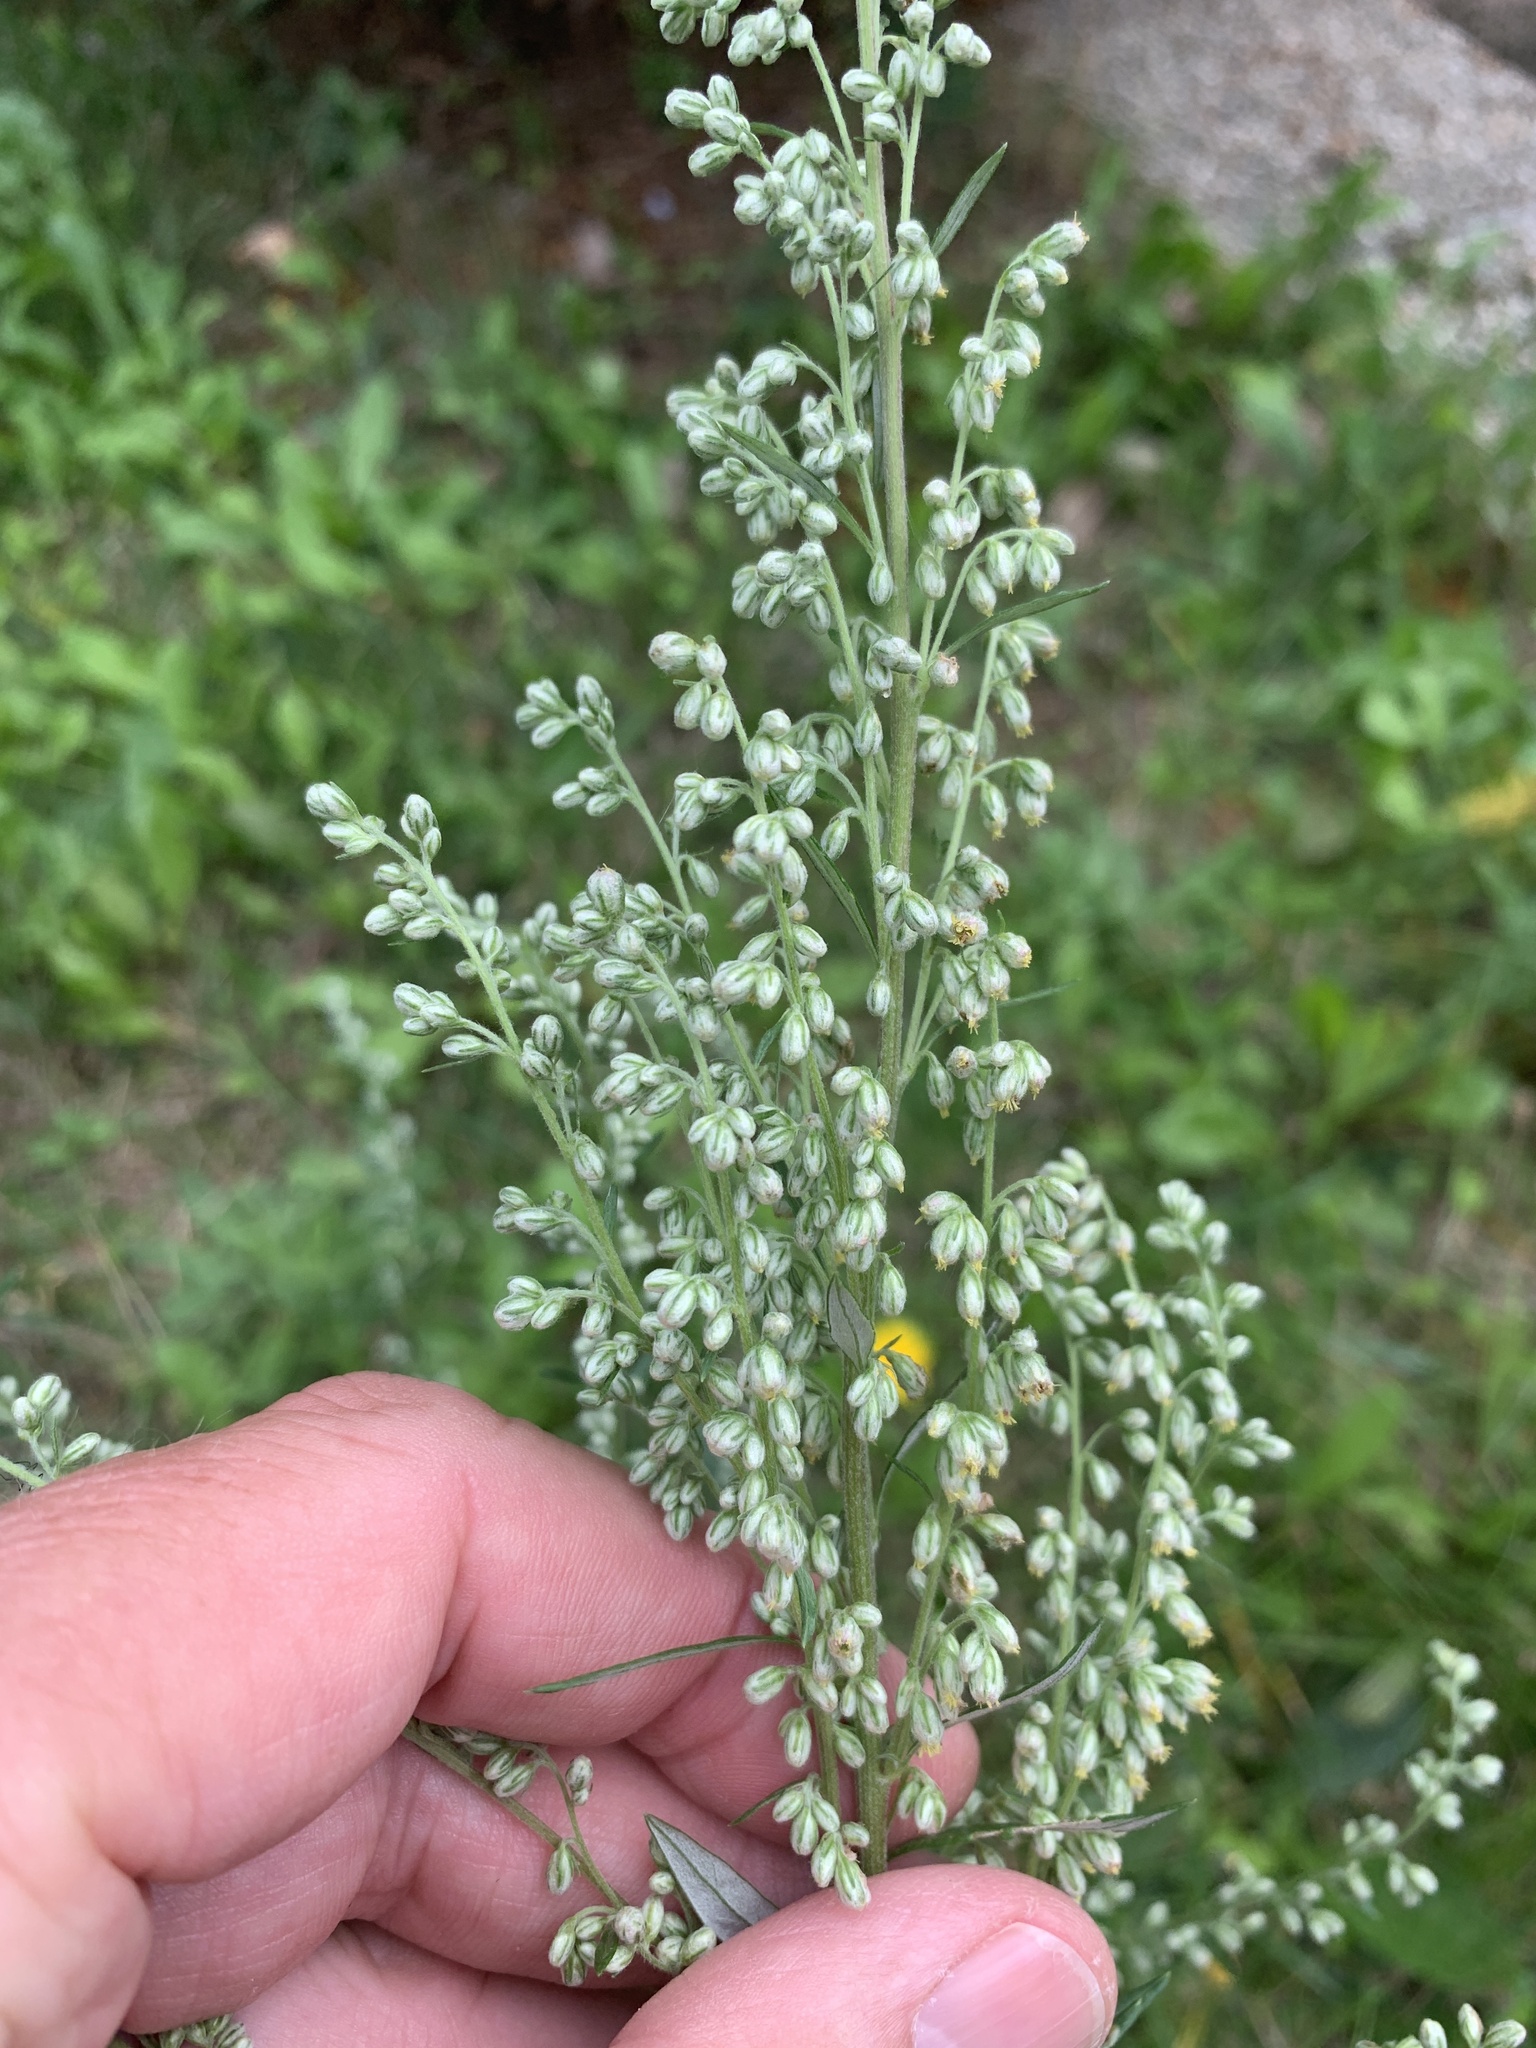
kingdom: Plantae
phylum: Tracheophyta
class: Magnoliopsida
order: Asterales
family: Asteraceae
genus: Artemisia
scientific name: Artemisia vulgaris
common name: Mugwort
